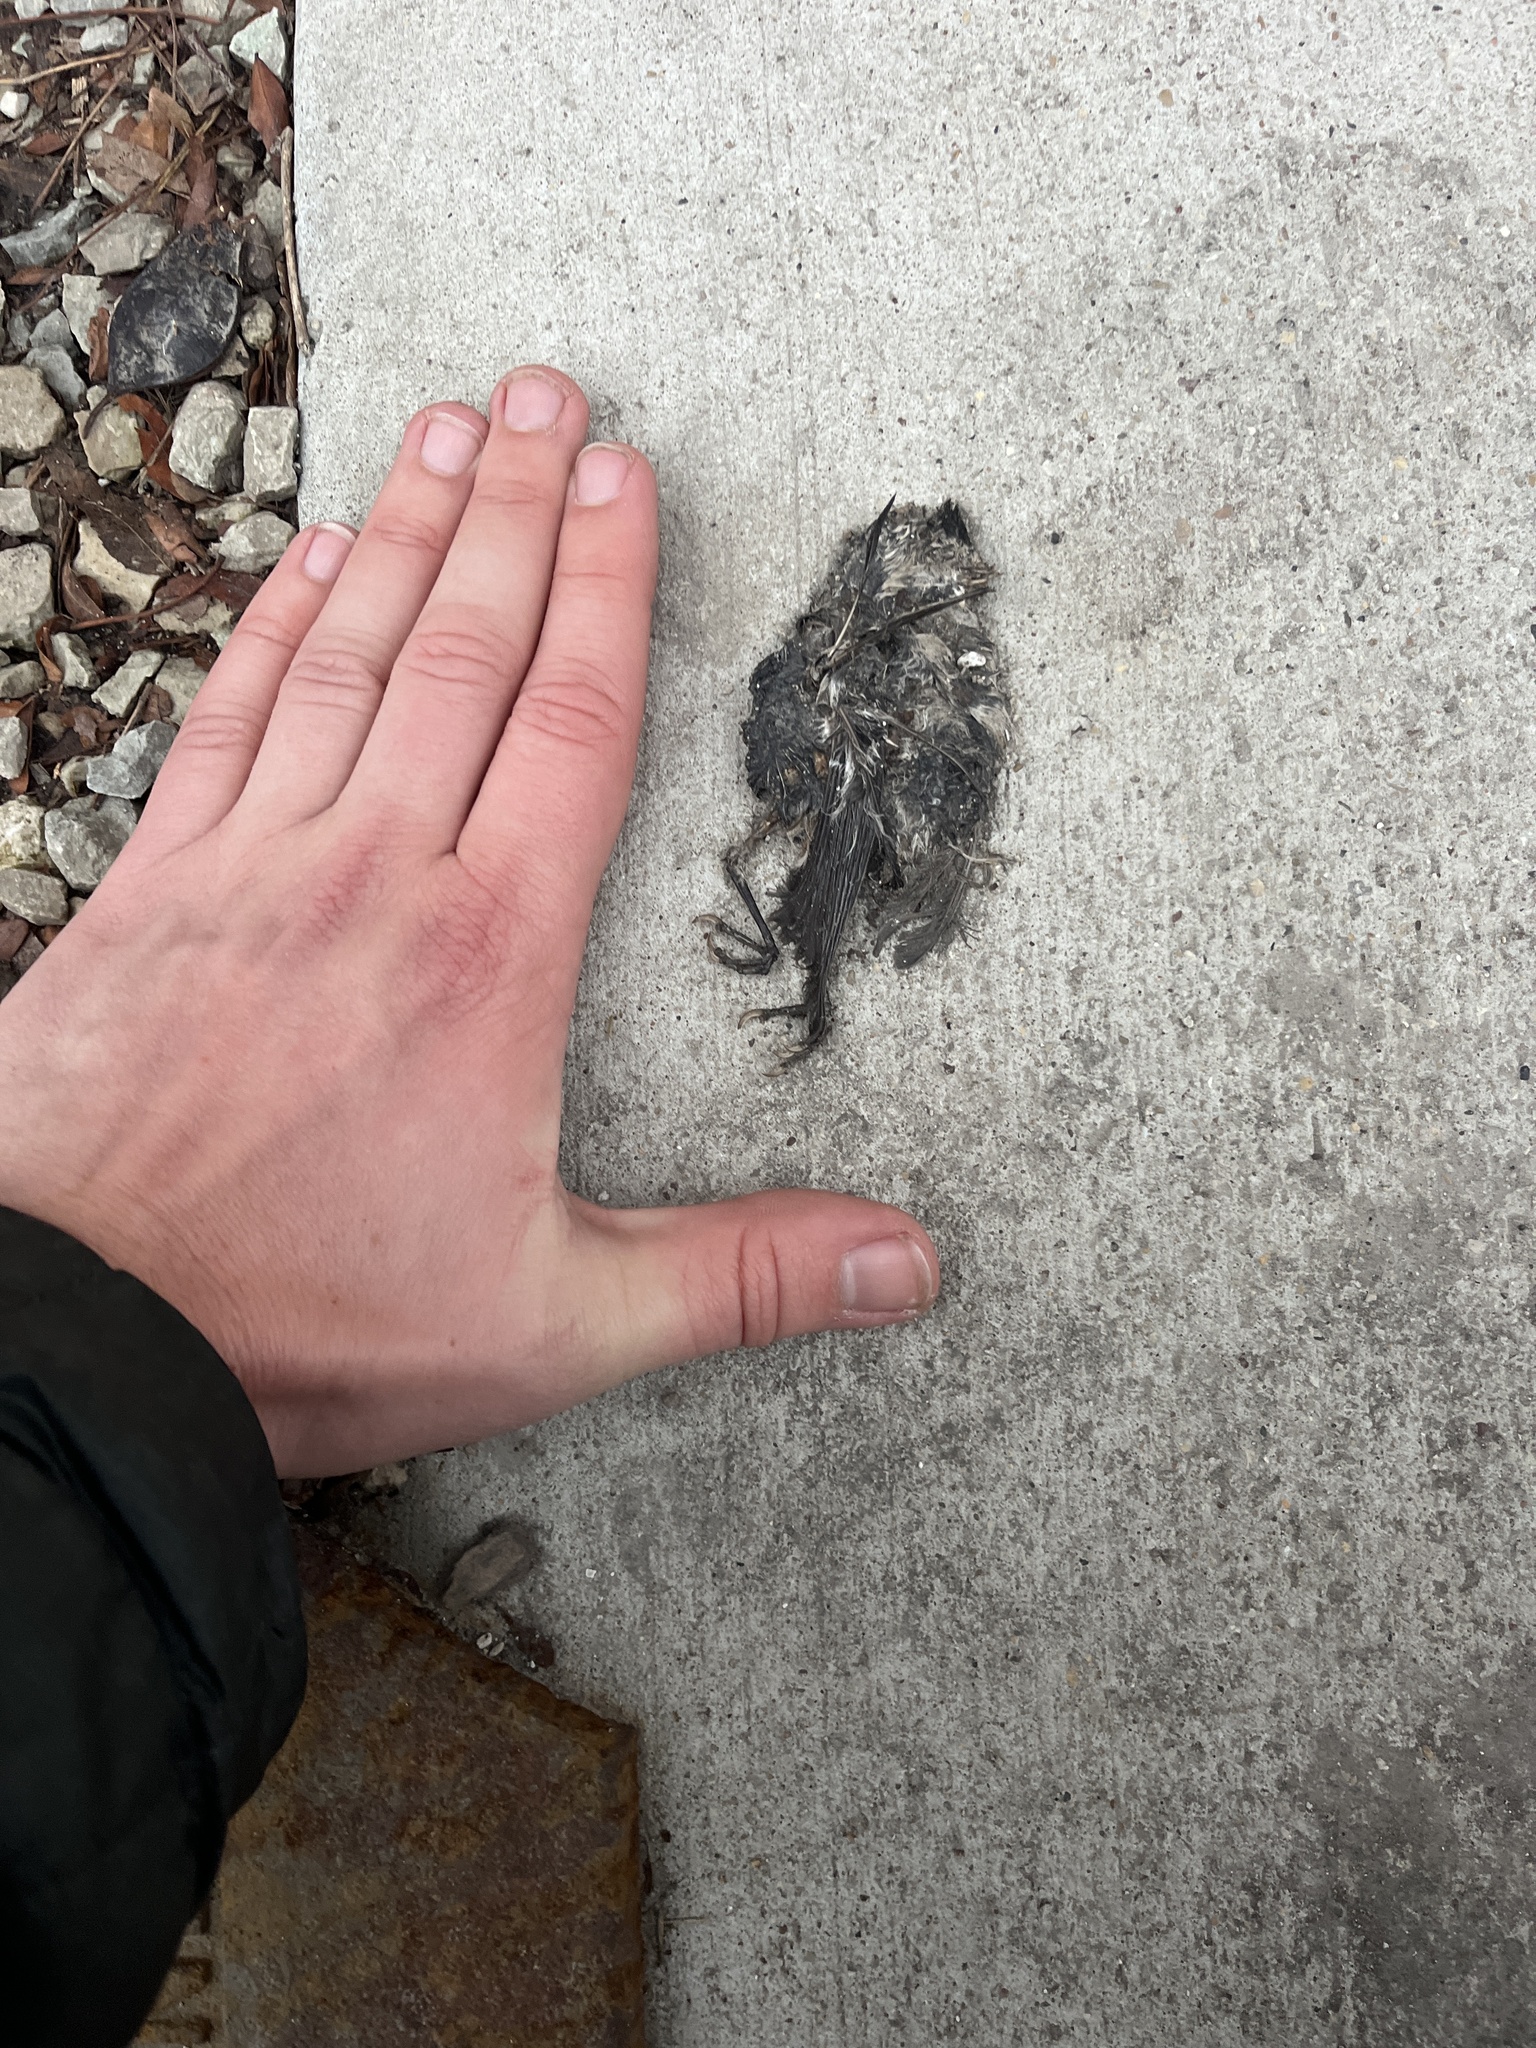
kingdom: Animalia
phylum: Chordata
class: Aves
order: Passeriformes
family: Turdidae
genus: Turdus
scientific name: Turdus migratorius
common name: American robin
